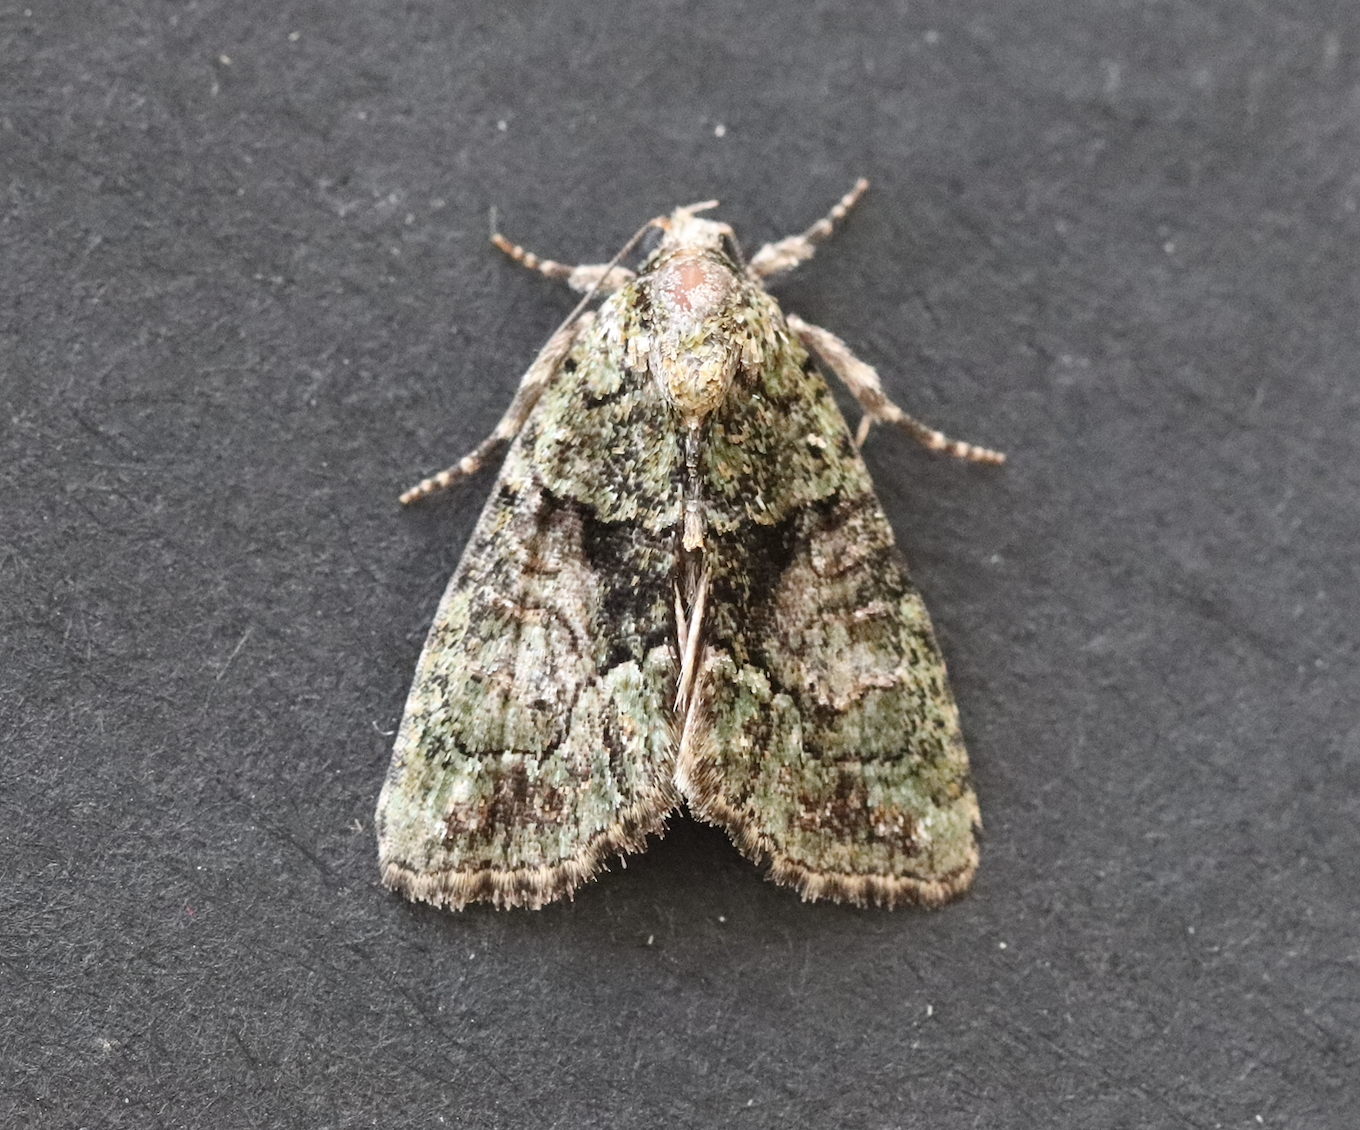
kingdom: Animalia
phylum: Arthropoda
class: Insecta
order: Lepidoptera
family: Noctuidae
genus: Cryphia
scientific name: Cryphia algae
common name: Tree-lichen beauty
